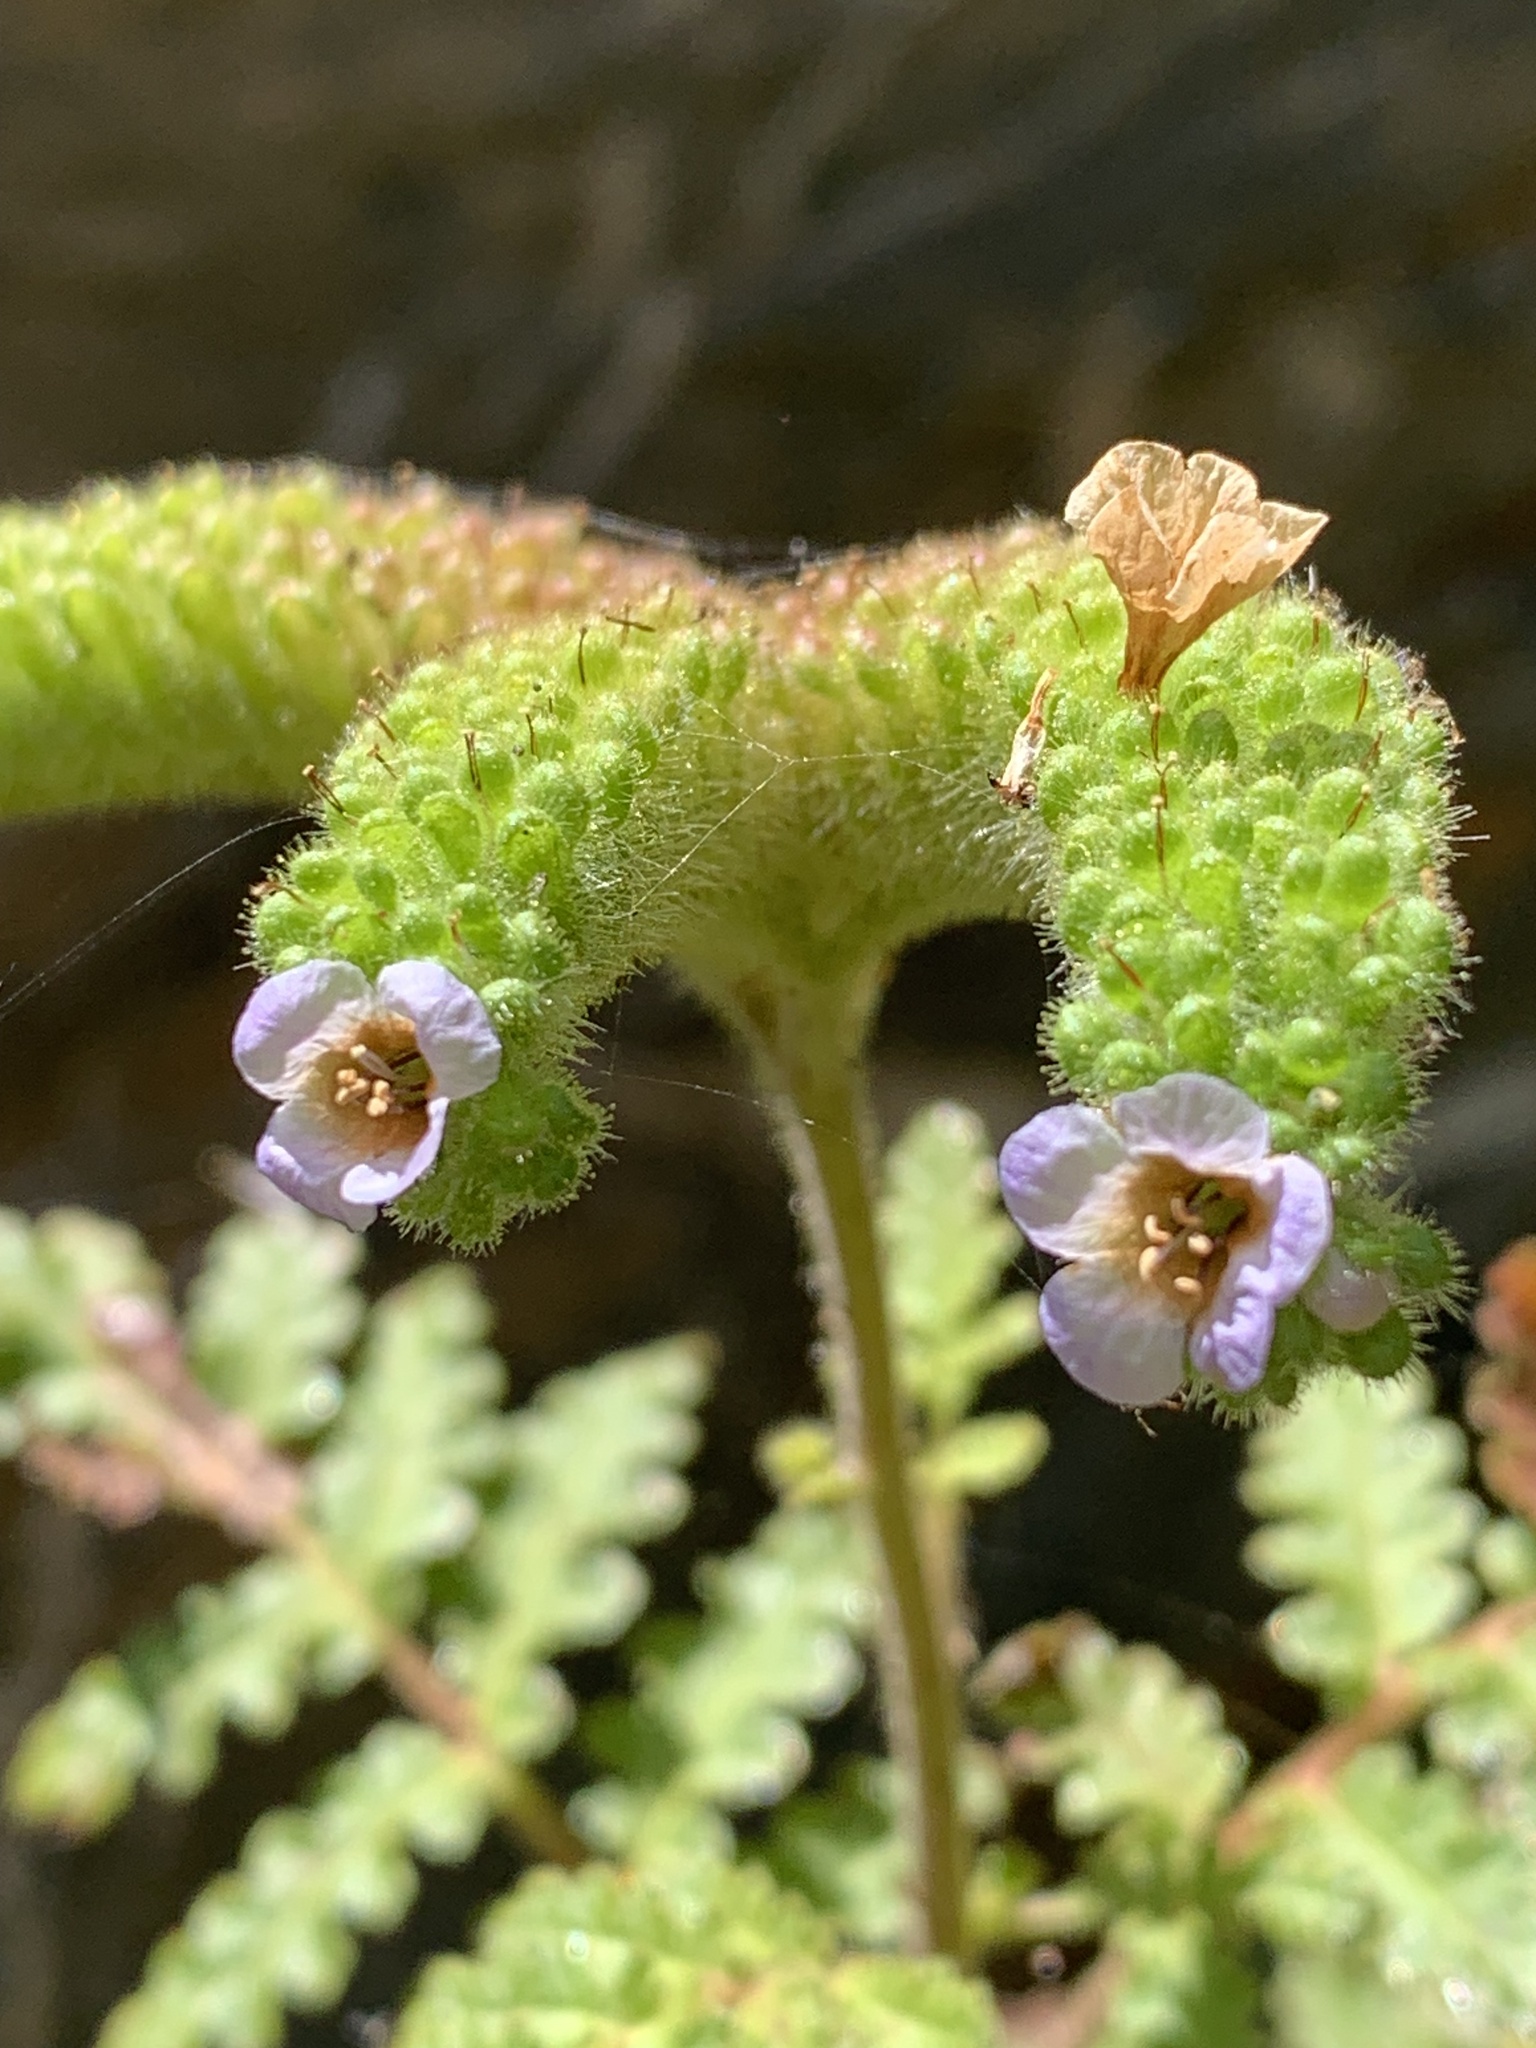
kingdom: Plantae
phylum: Tracheophyta
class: Magnoliopsida
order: Boraginales
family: Hydrophyllaceae
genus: Phacelia
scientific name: Phacelia lyonii
